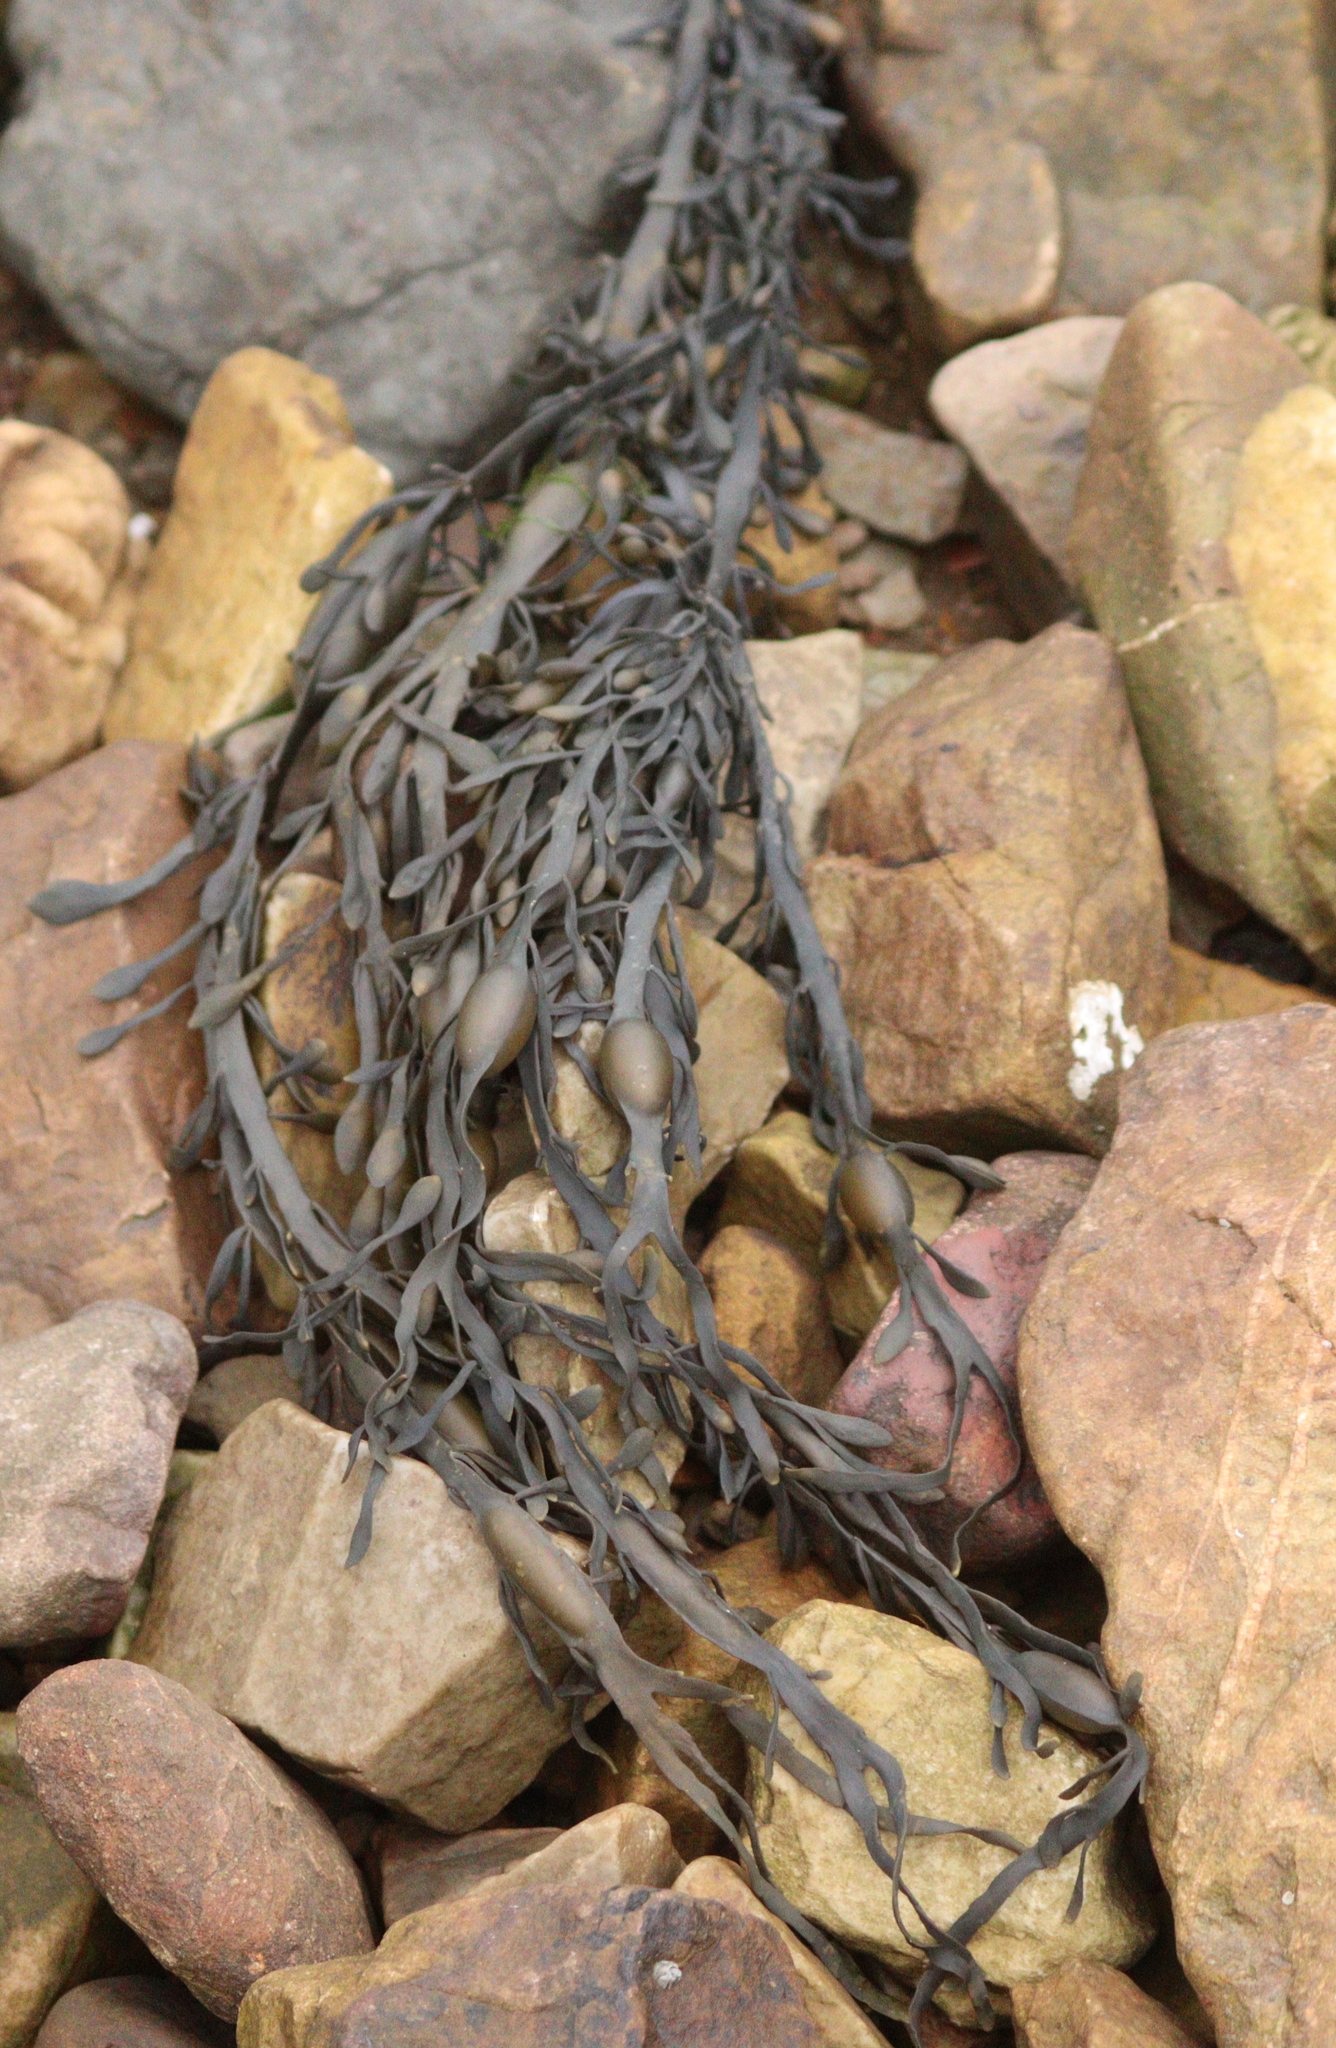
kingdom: Chromista
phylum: Ochrophyta
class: Phaeophyceae
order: Fucales
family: Fucaceae
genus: Ascophyllum
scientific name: Ascophyllum nodosum
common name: Knotted wrack
